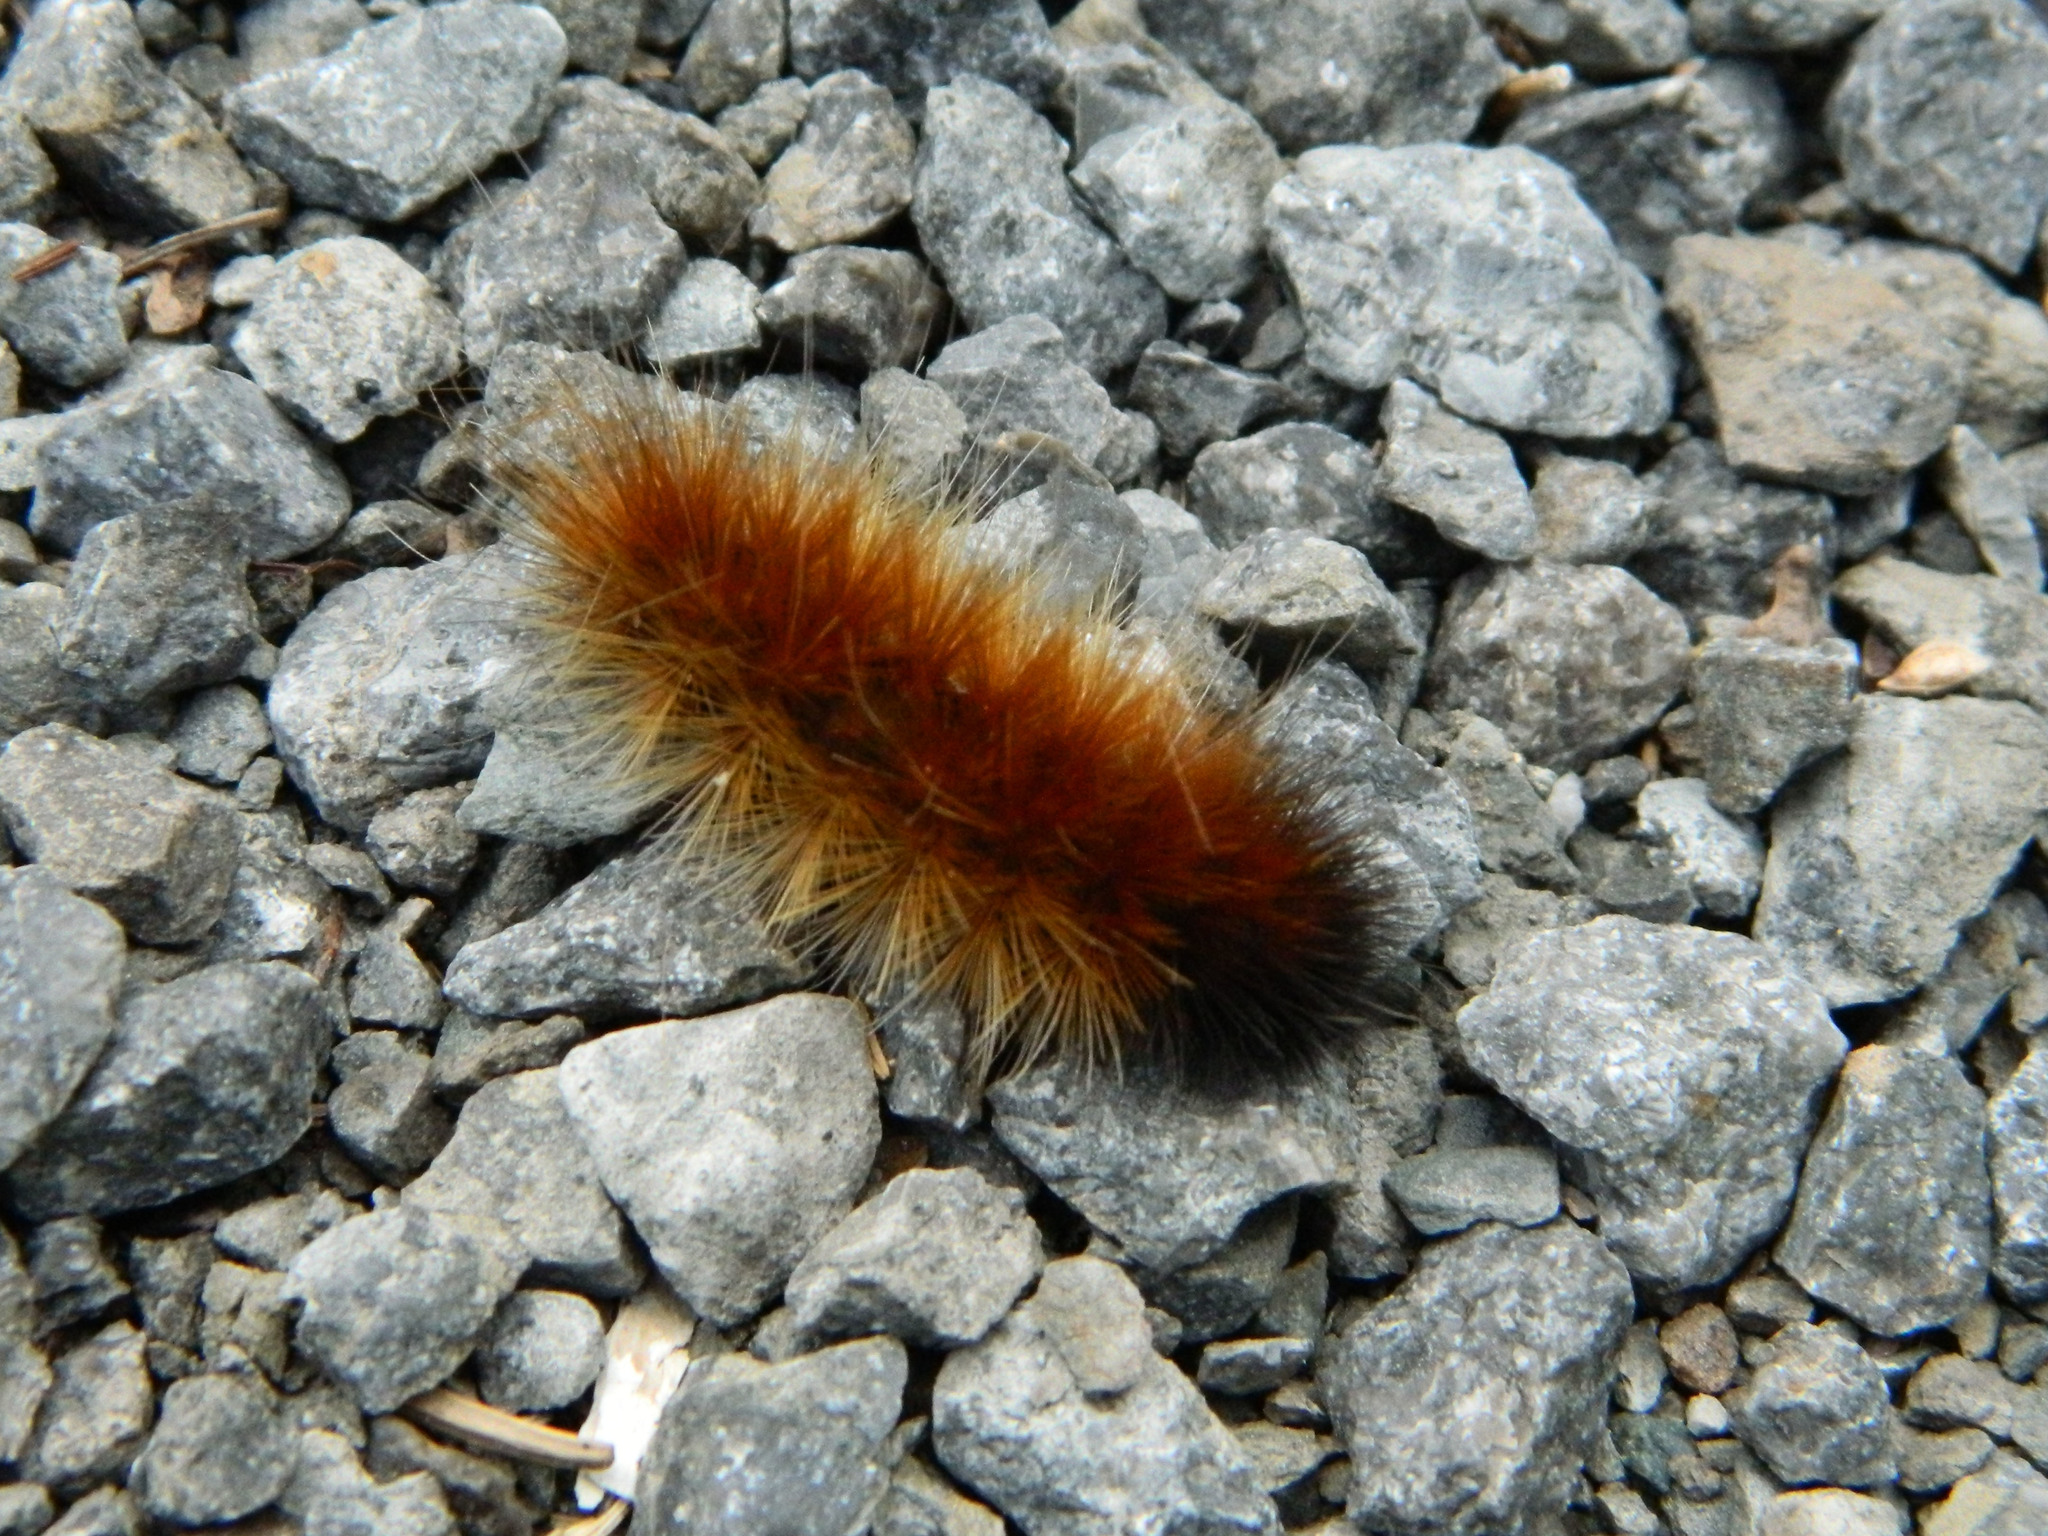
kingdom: Animalia
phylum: Arthropoda
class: Insecta
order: Lepidoptera
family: Erebidae
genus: Spilosoma
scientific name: Spilosoma virginica
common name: Virginia tiger moth
